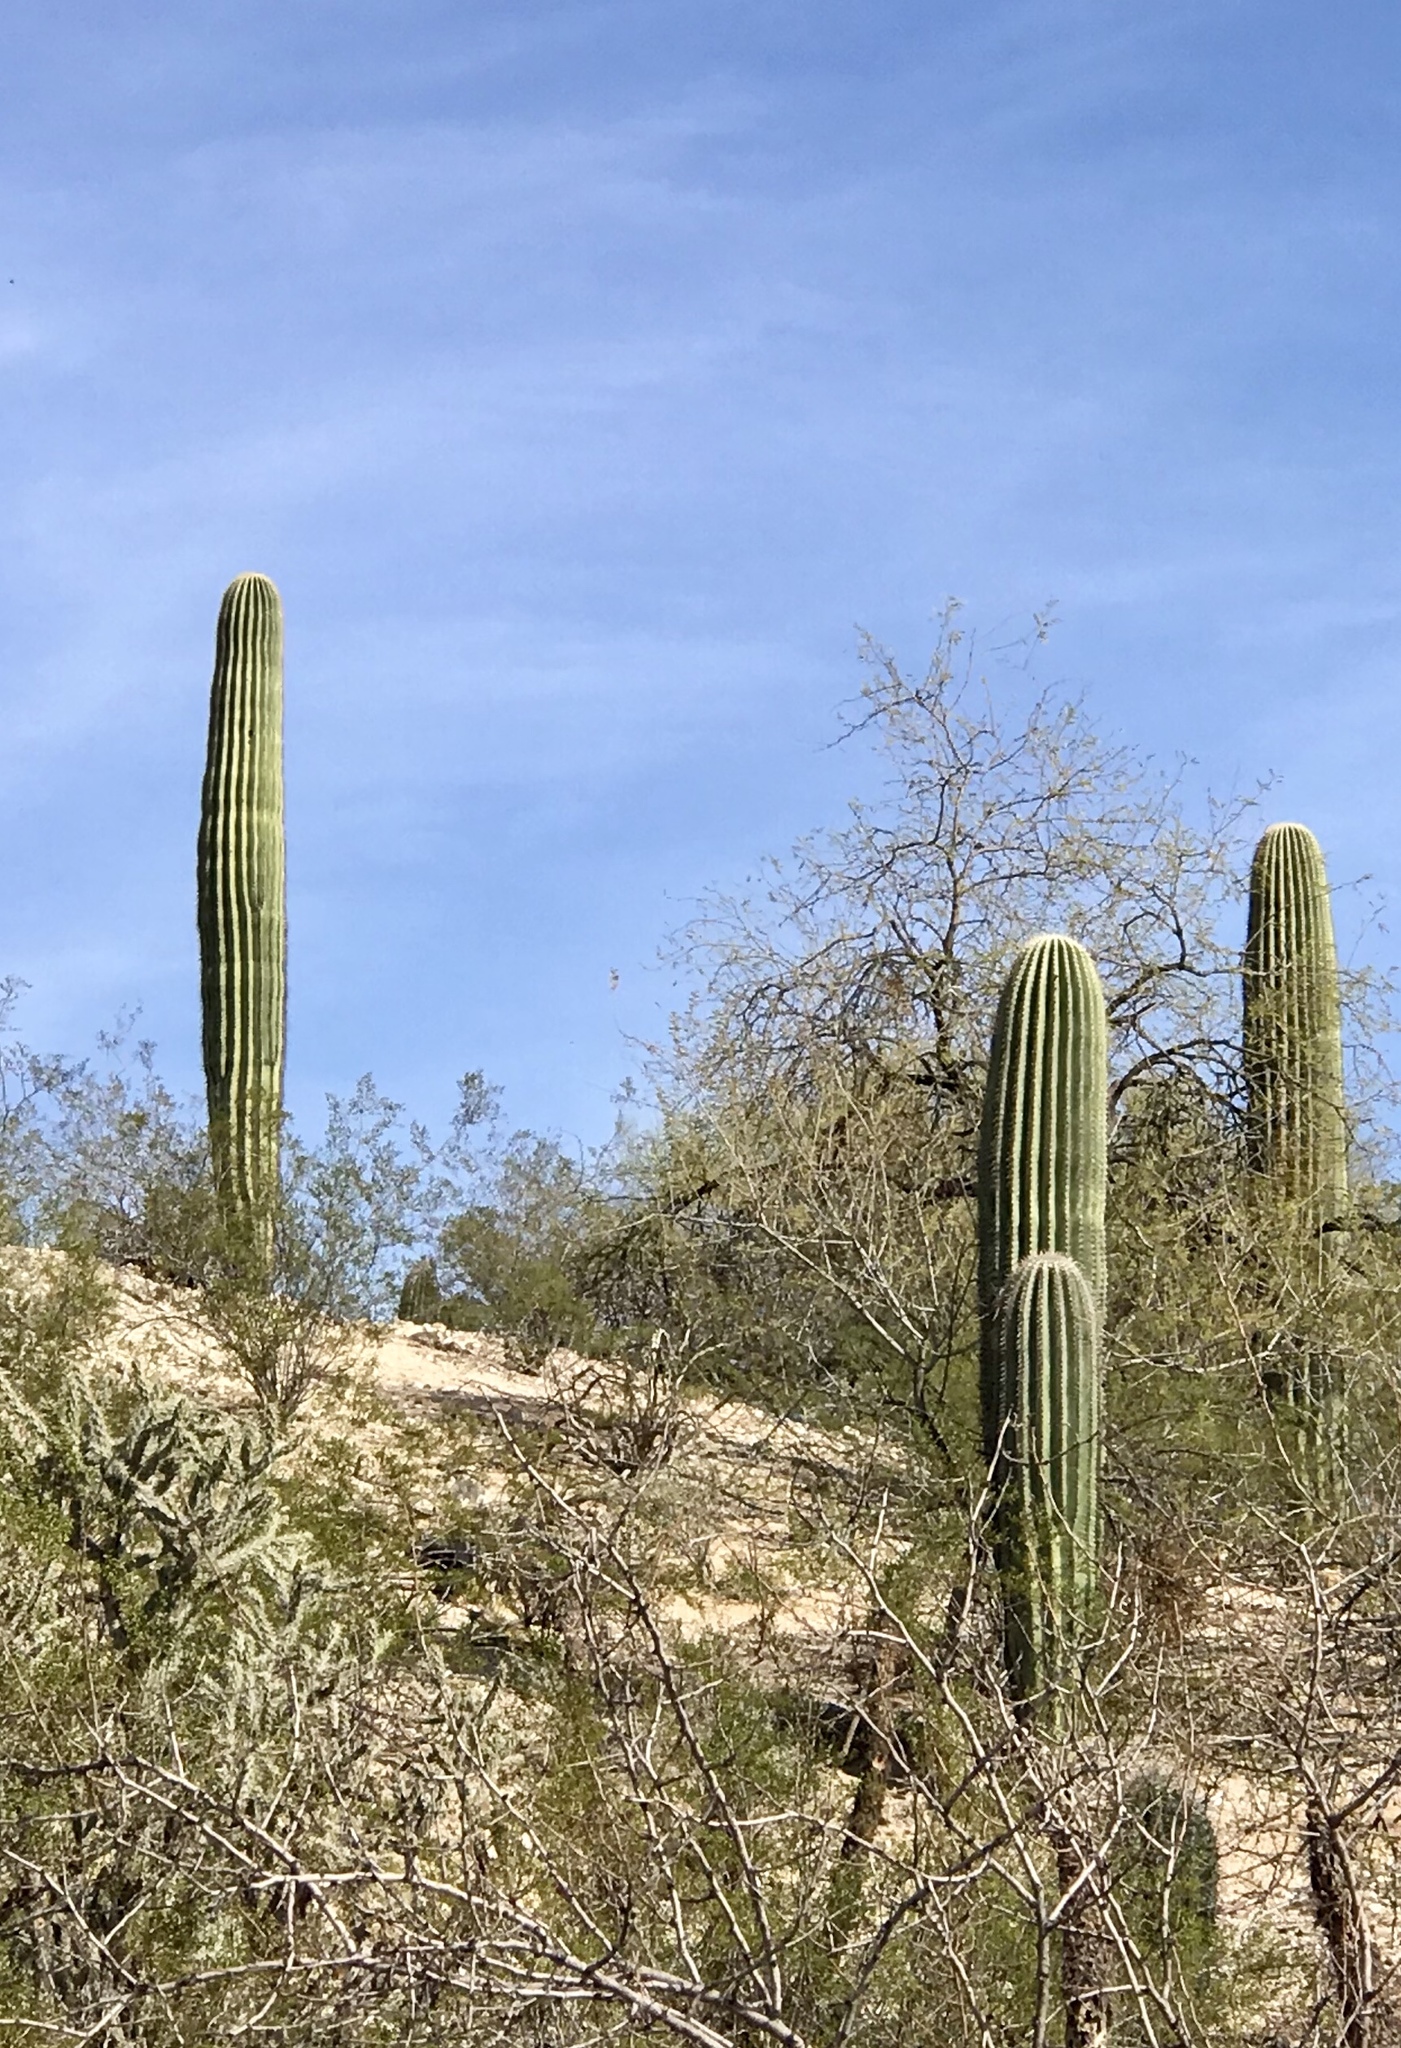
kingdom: Plantae
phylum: Tracheophyta
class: Magnoliopsida
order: Caryophyllales
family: Cactaceae
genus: Carnegiea
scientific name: Carnegiea gigantea
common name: Saguaro
